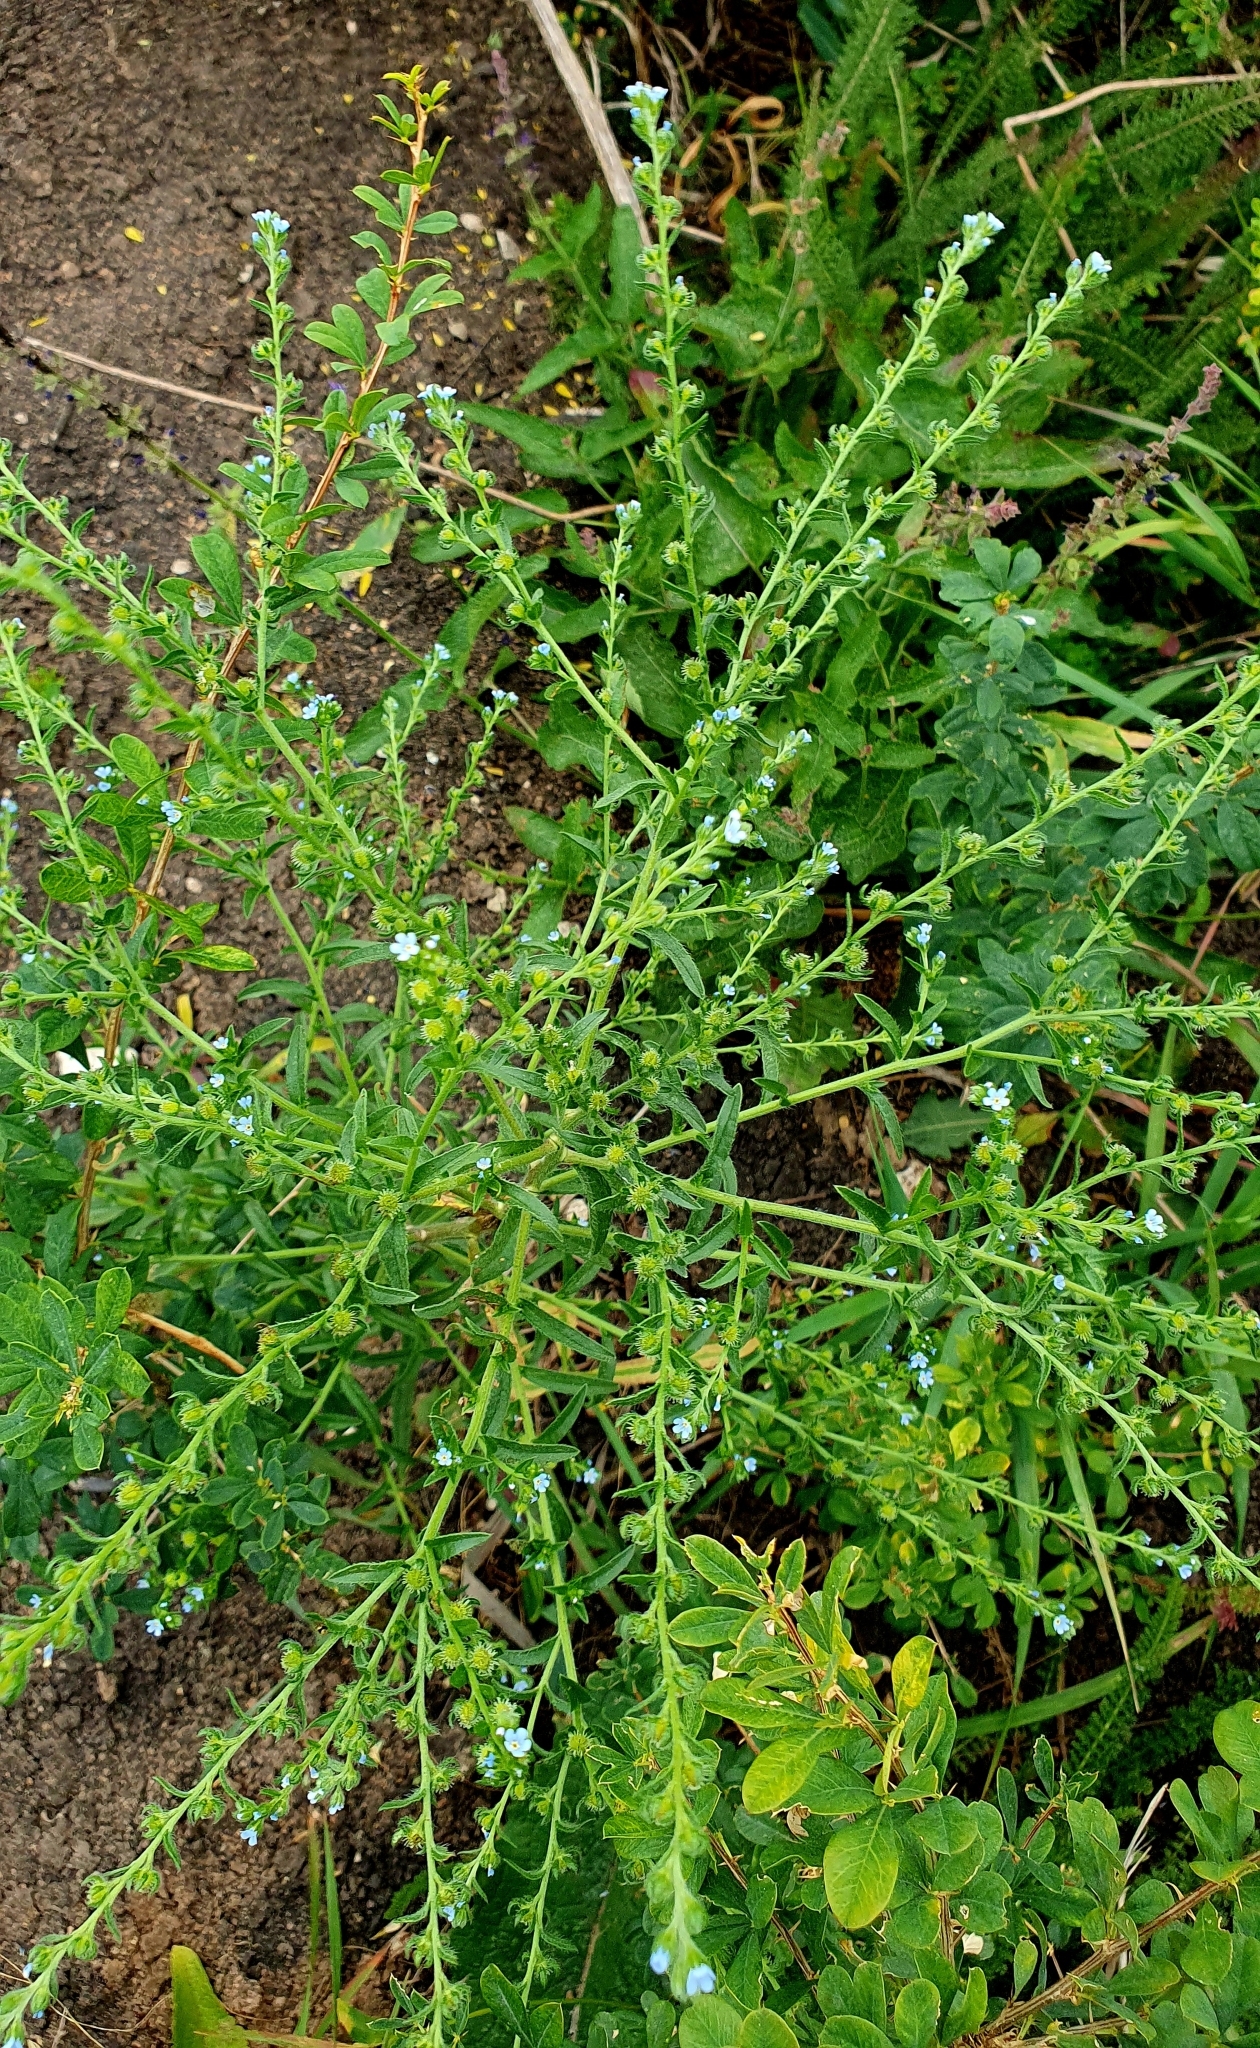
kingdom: Plantae
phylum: Tracheophyta
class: Magnoliopsida
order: Boraginales
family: Boraginaceae
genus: Lappula
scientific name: Lappula squarrosa
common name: European stickseed
